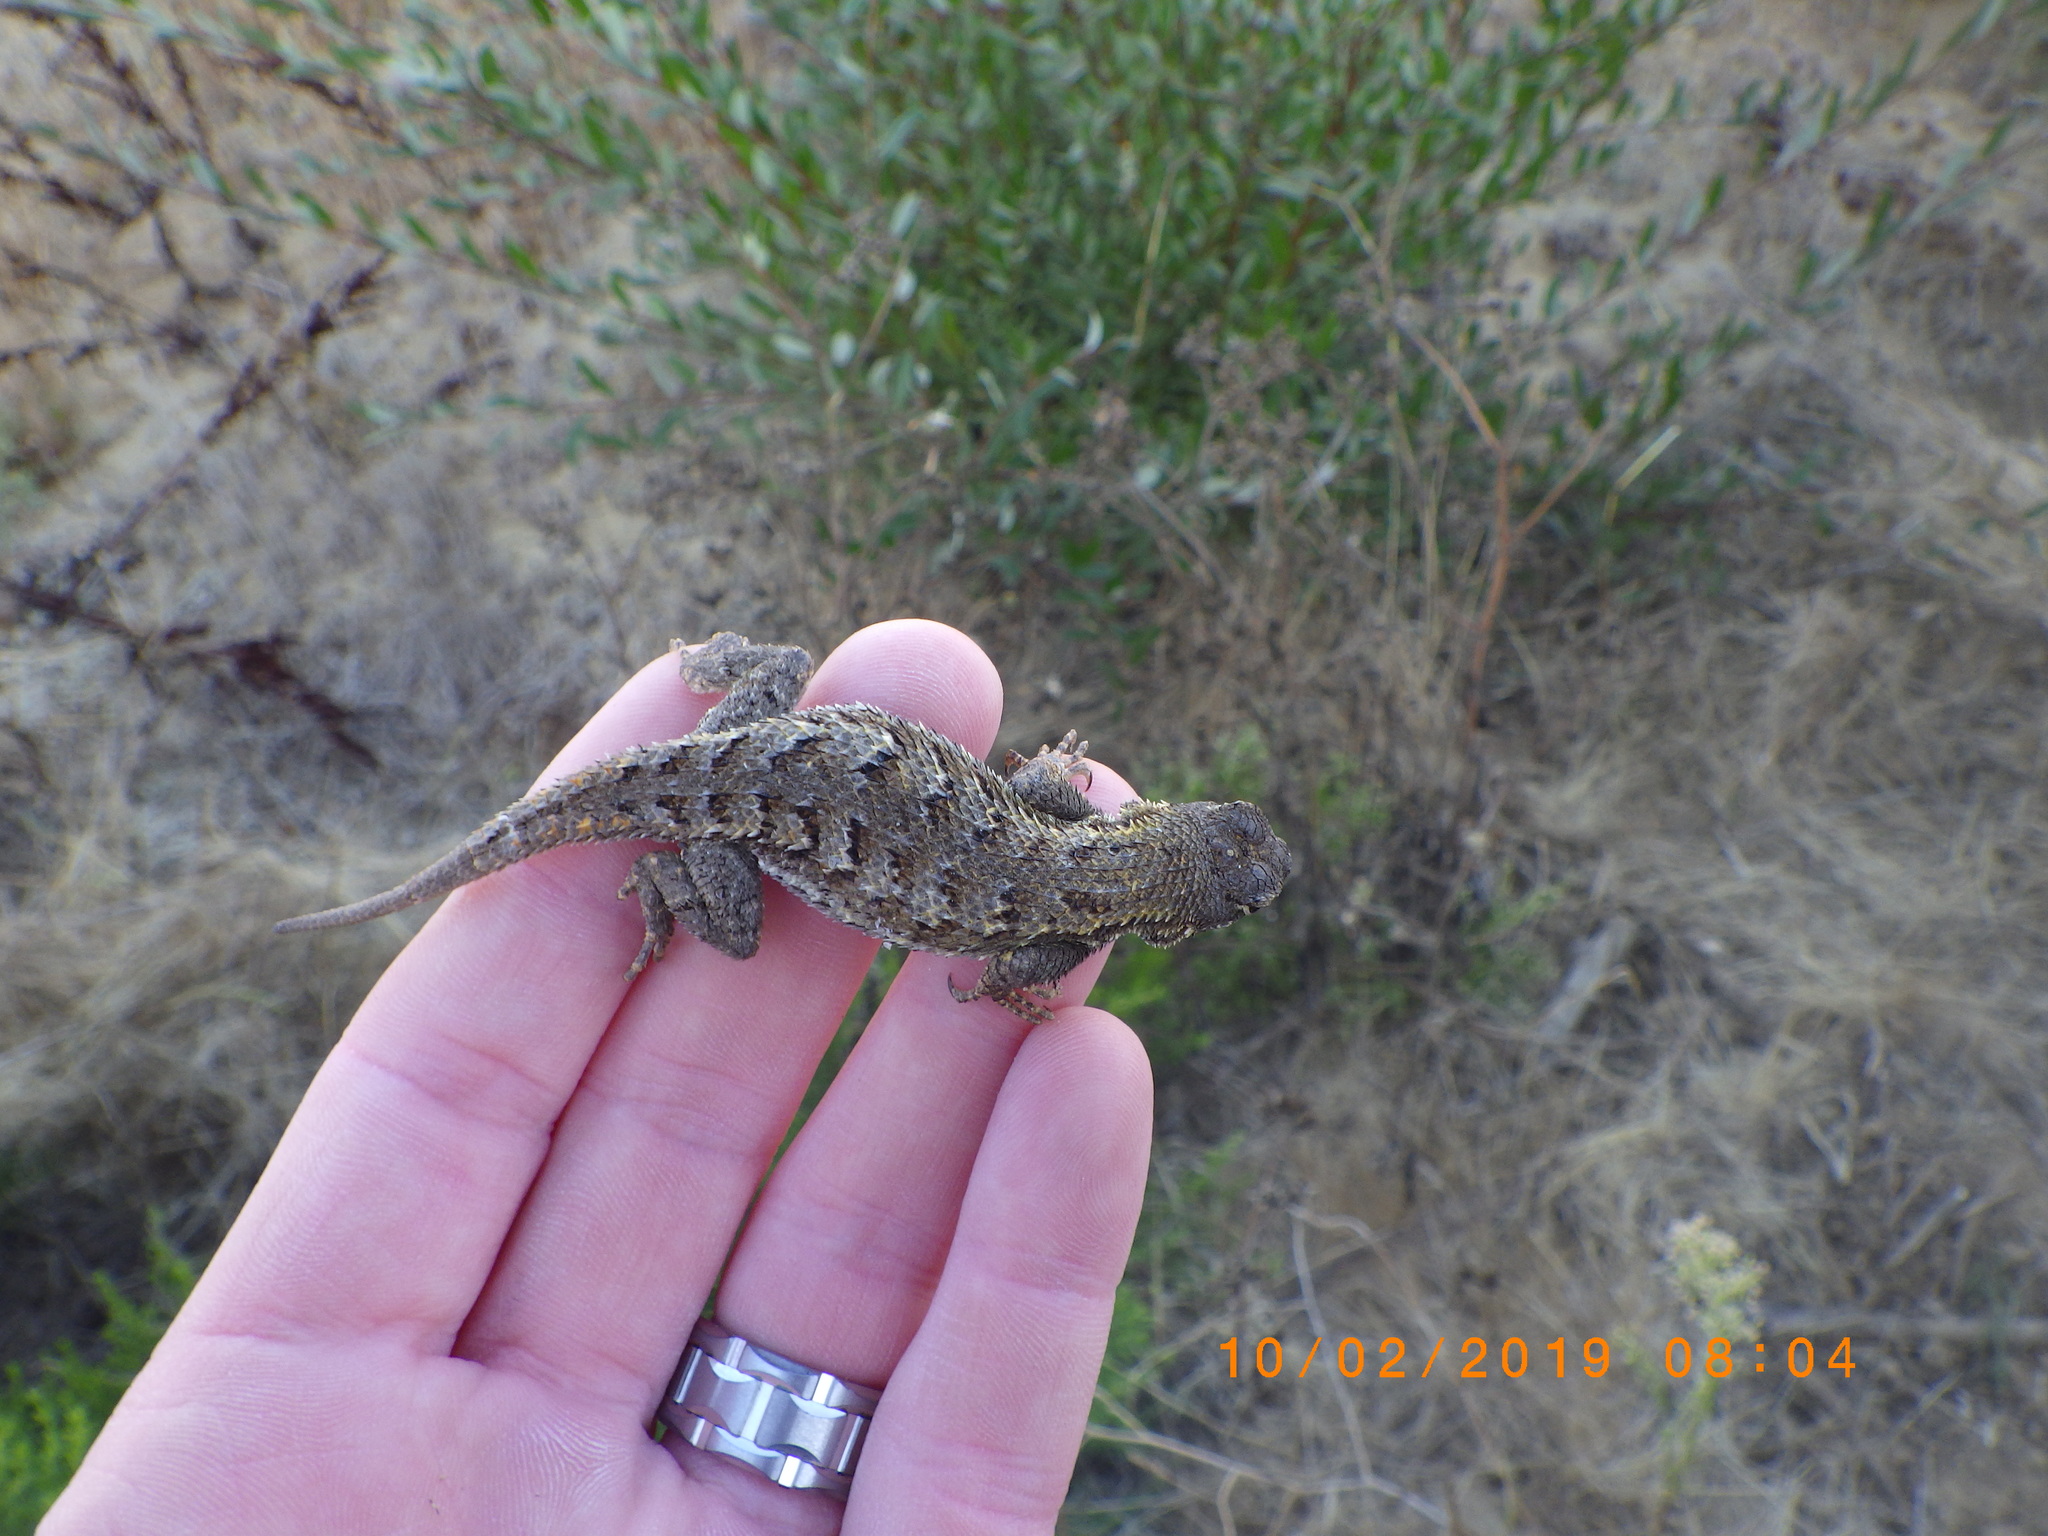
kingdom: Animalia
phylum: Chordata
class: Squamata
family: Phrynosomatidae
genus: Sceloporus
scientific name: Sceloporus occidentalis
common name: Western fence lizard
